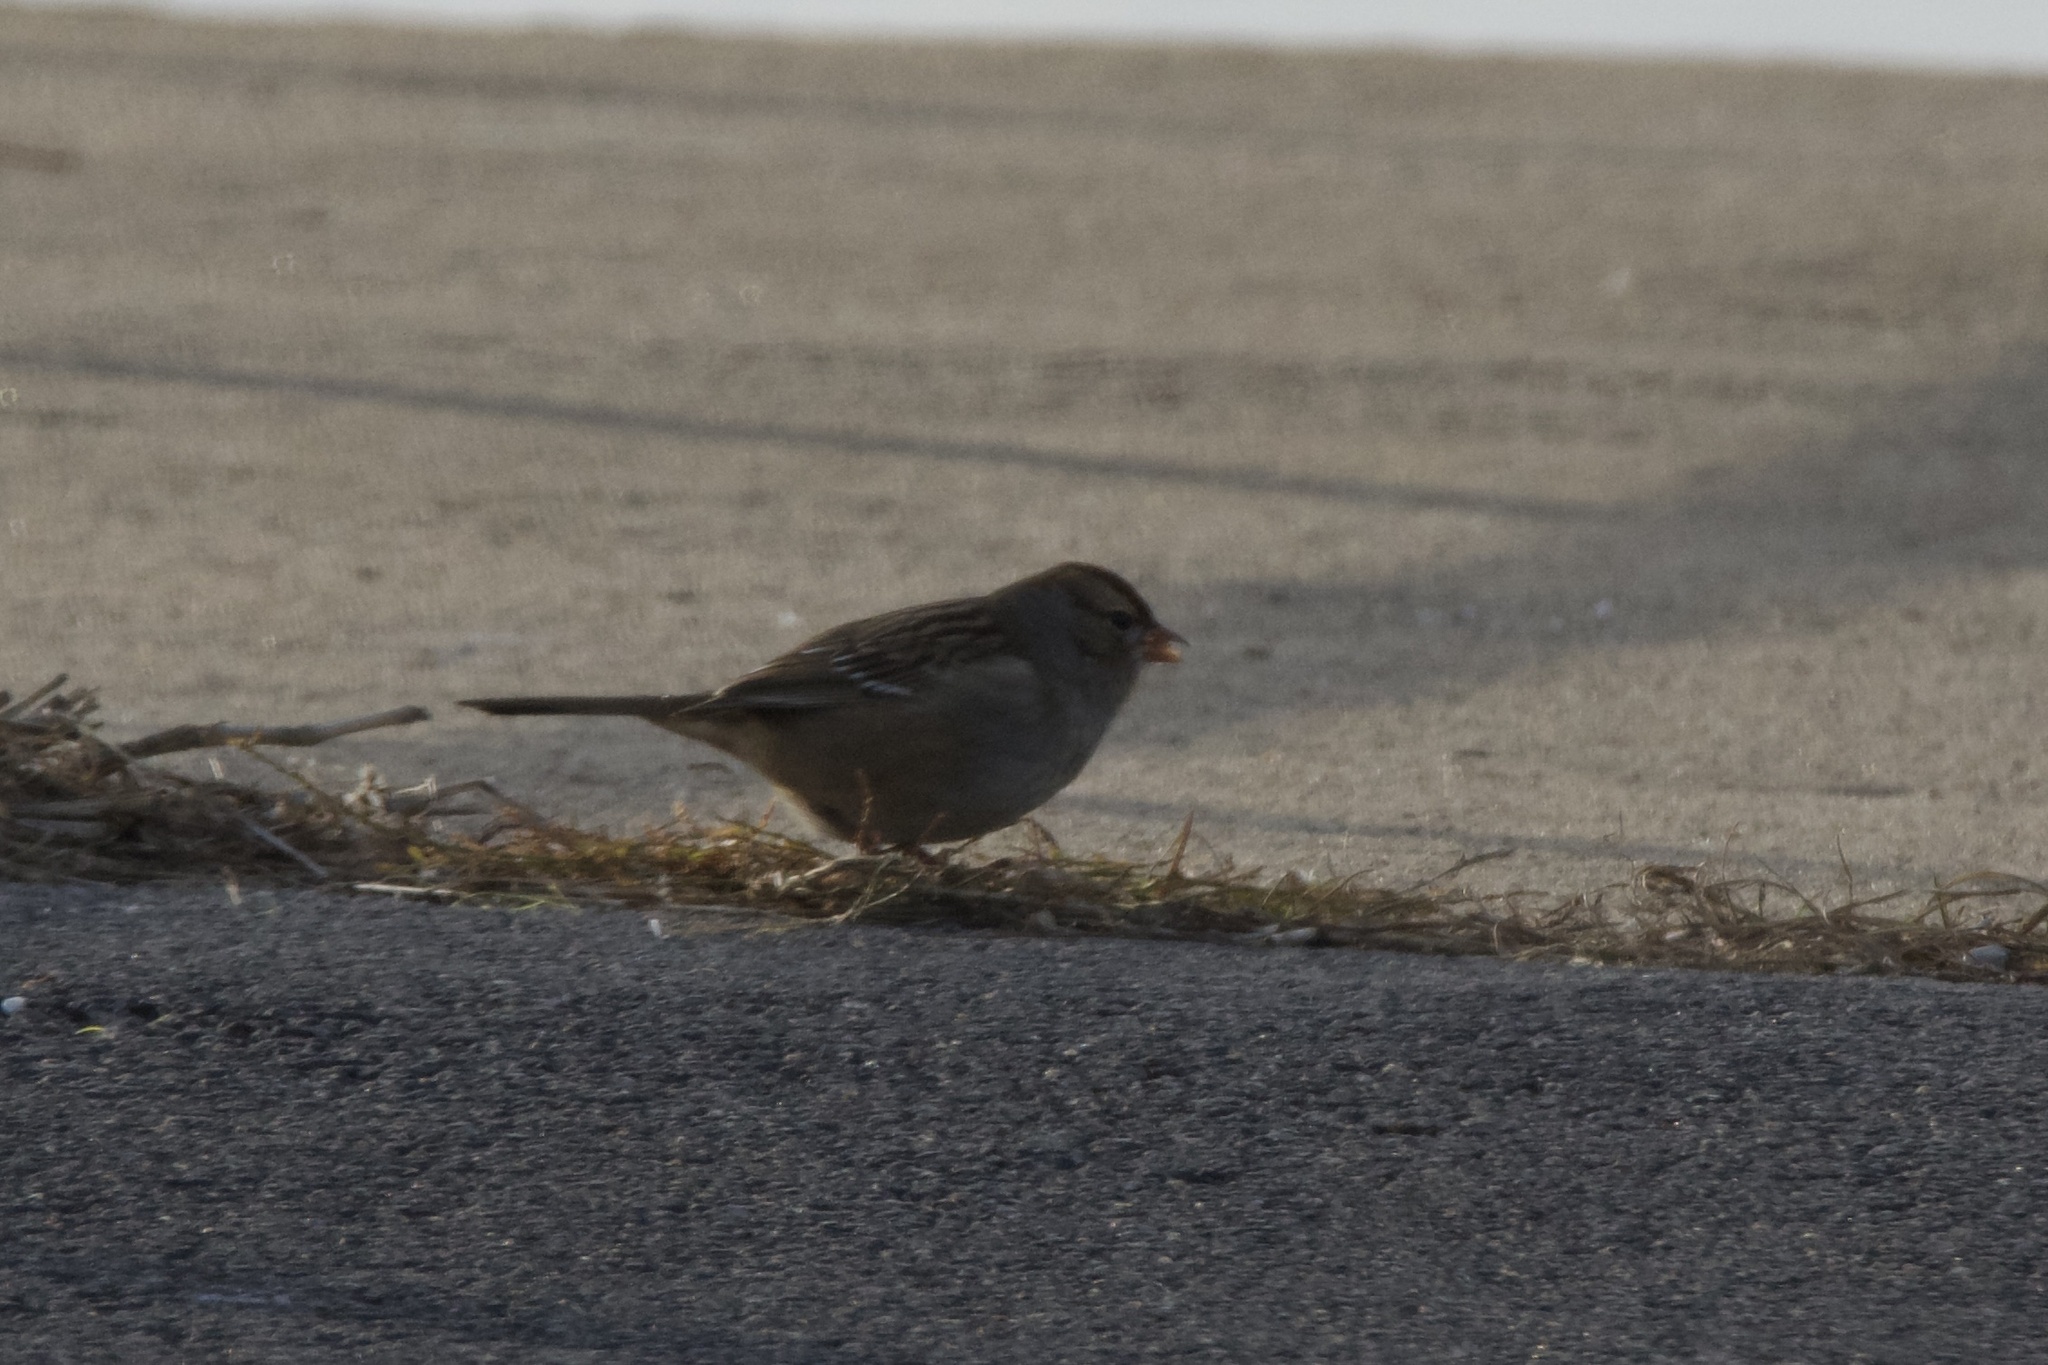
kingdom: Animalia
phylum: Chordata
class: Aves
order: Passeriformes
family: Passerellidae
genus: Zonotrichia
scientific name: Zonotrichia leucophrys
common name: White-crowned sparrow
